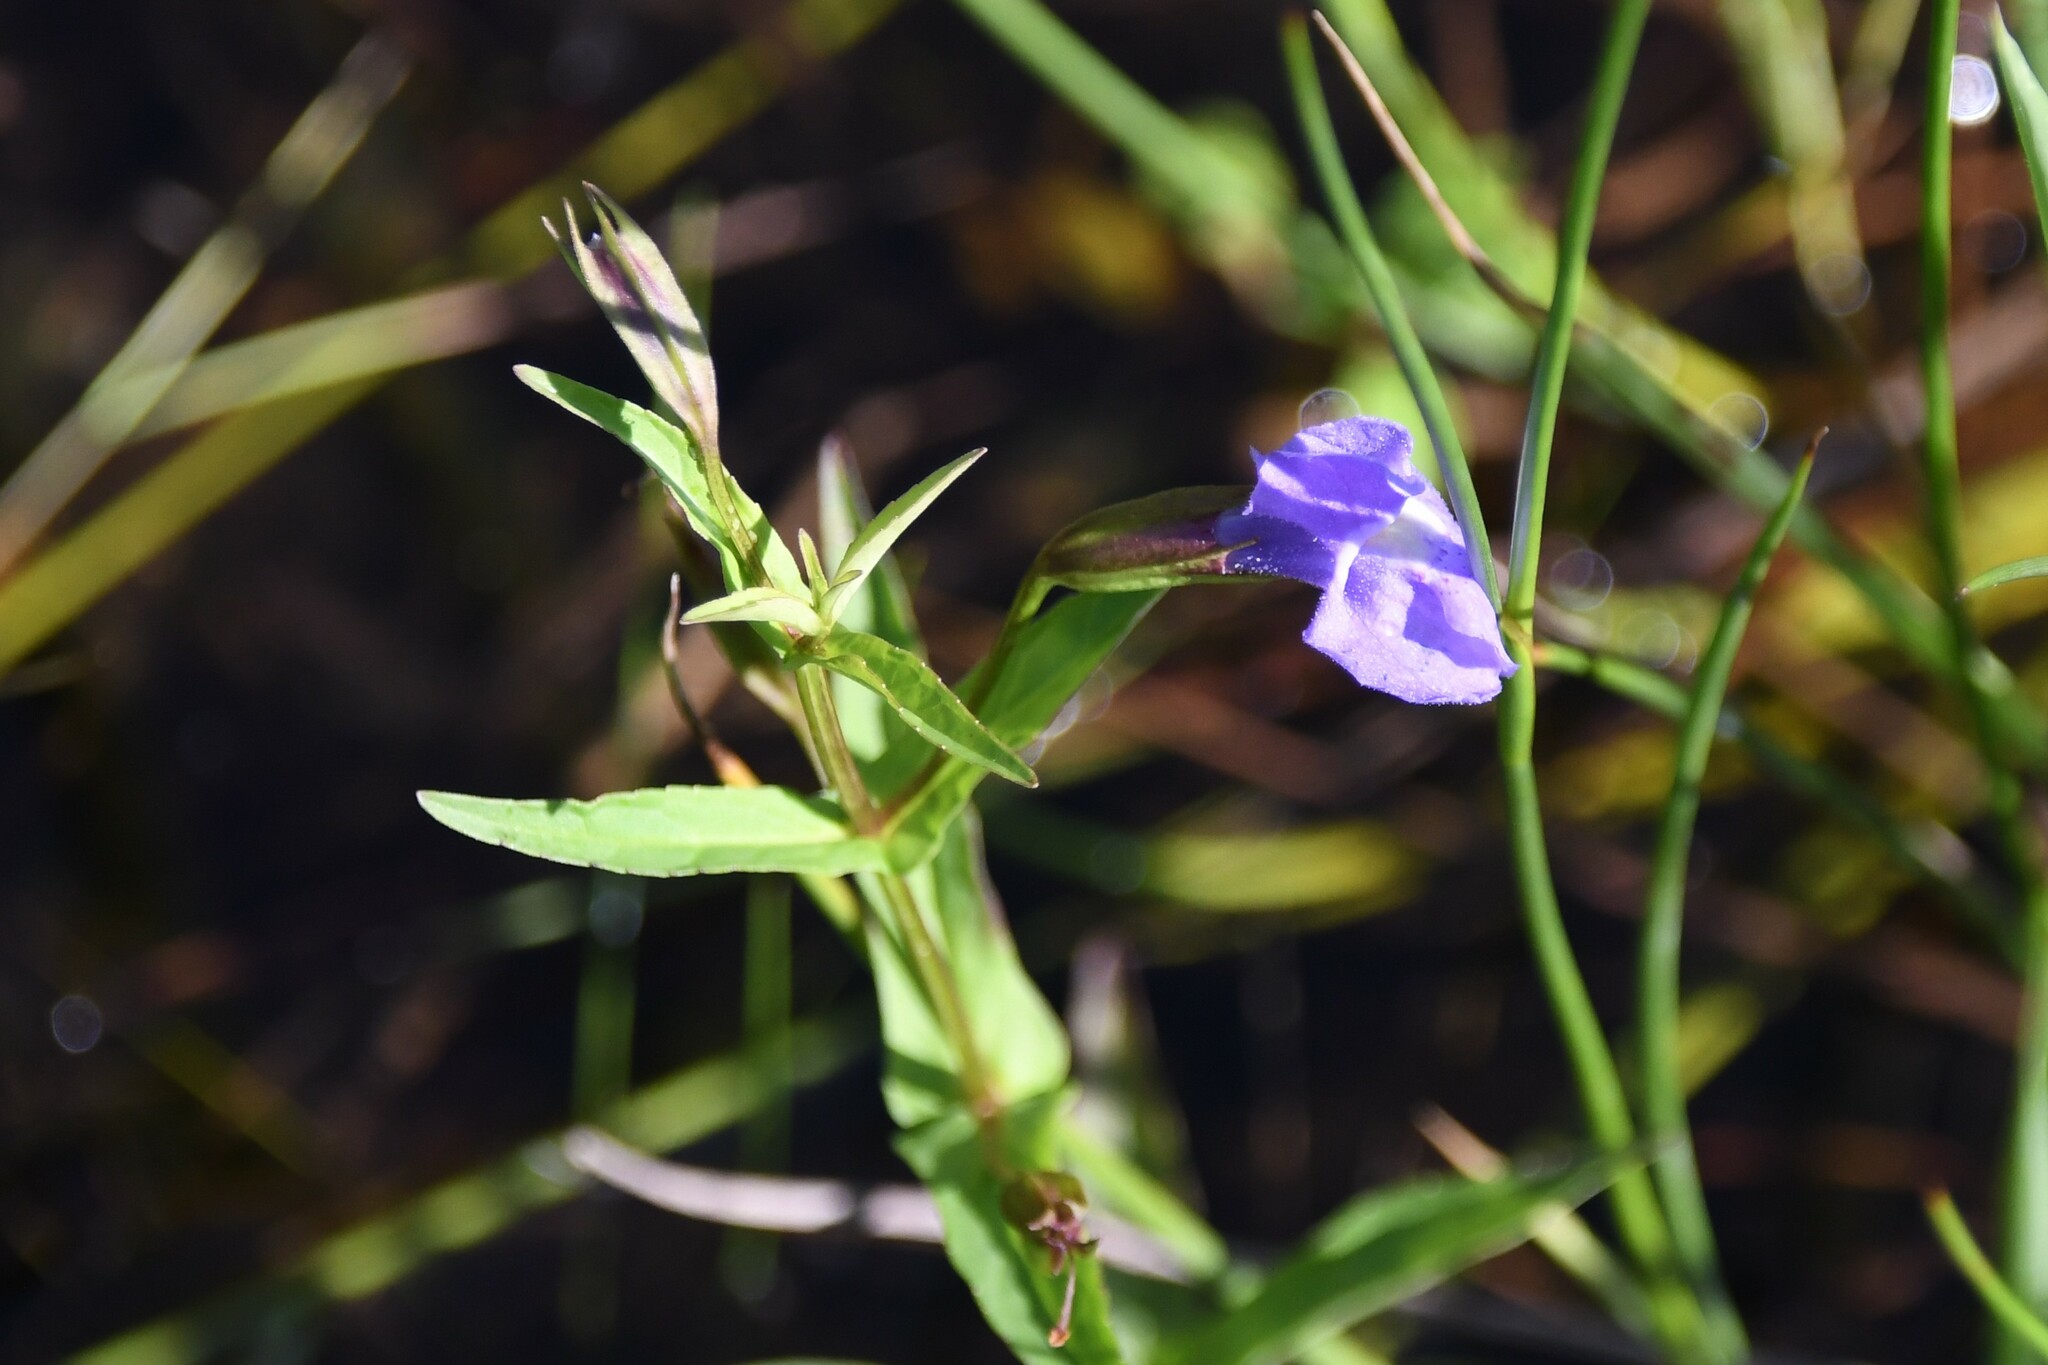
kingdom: Plantae
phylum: Tracheophyta
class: Magnoliopsida
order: Lamiales
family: Phrymaceae
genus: Mimulus
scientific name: Mimulus ringens
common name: Allegheny monkeyflower
